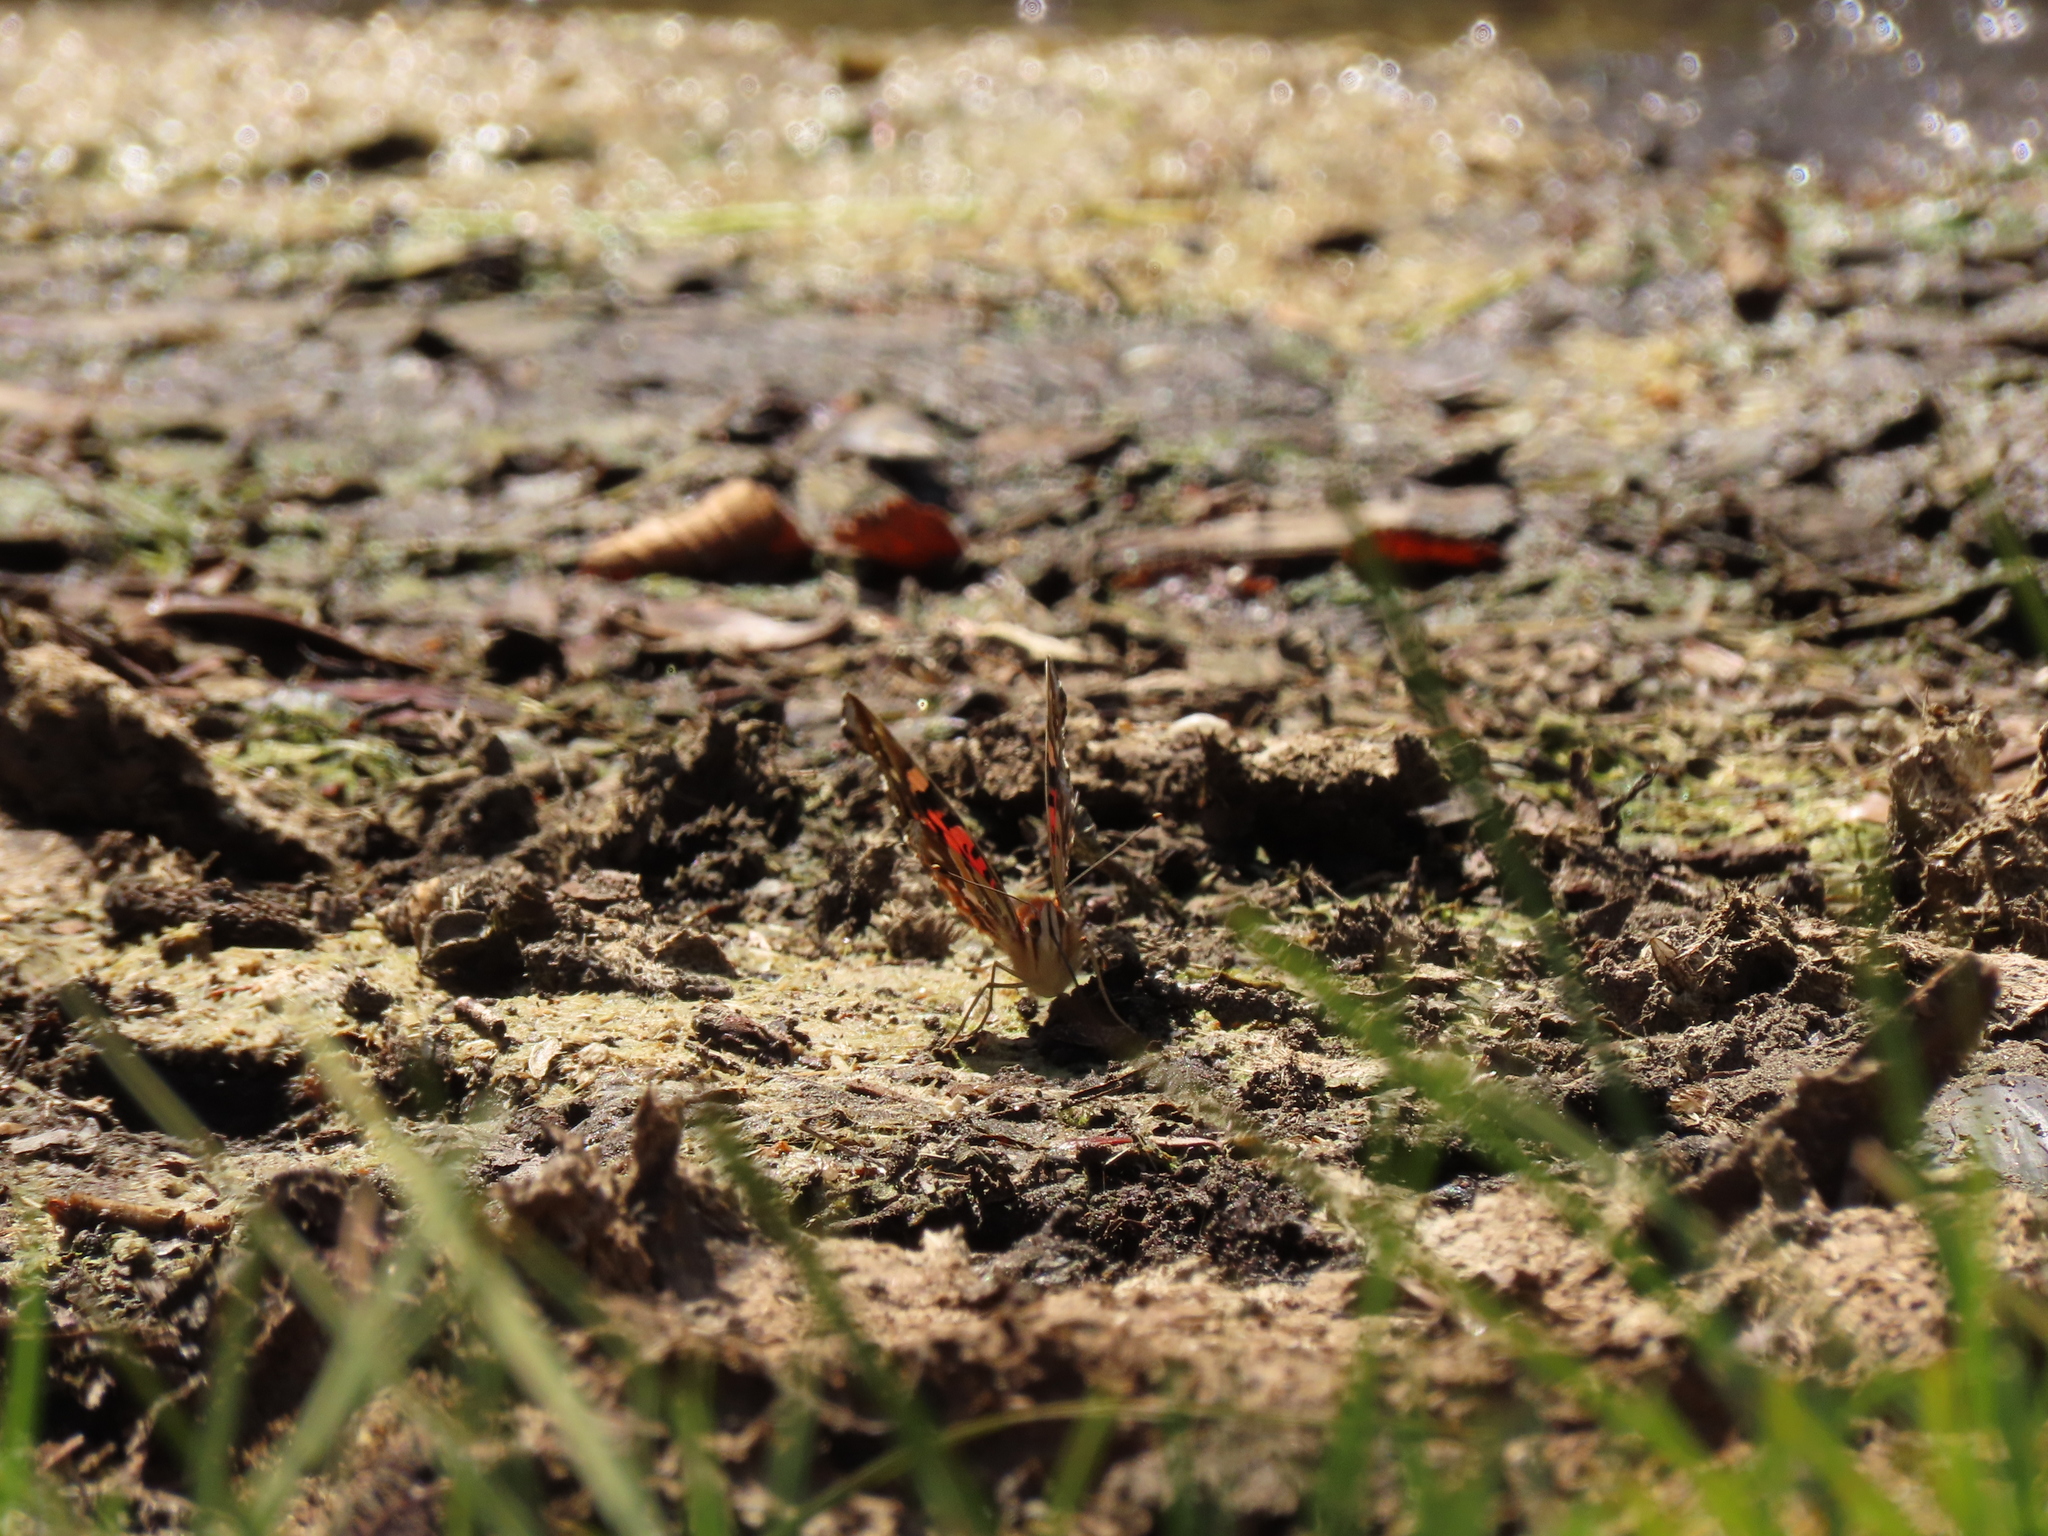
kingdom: Animalia
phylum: Arthropoda
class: Insecta
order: Lepidoptera
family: Nymphalidae
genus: Vanessa
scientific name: Vanessa terpsichore
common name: Chilean lady
